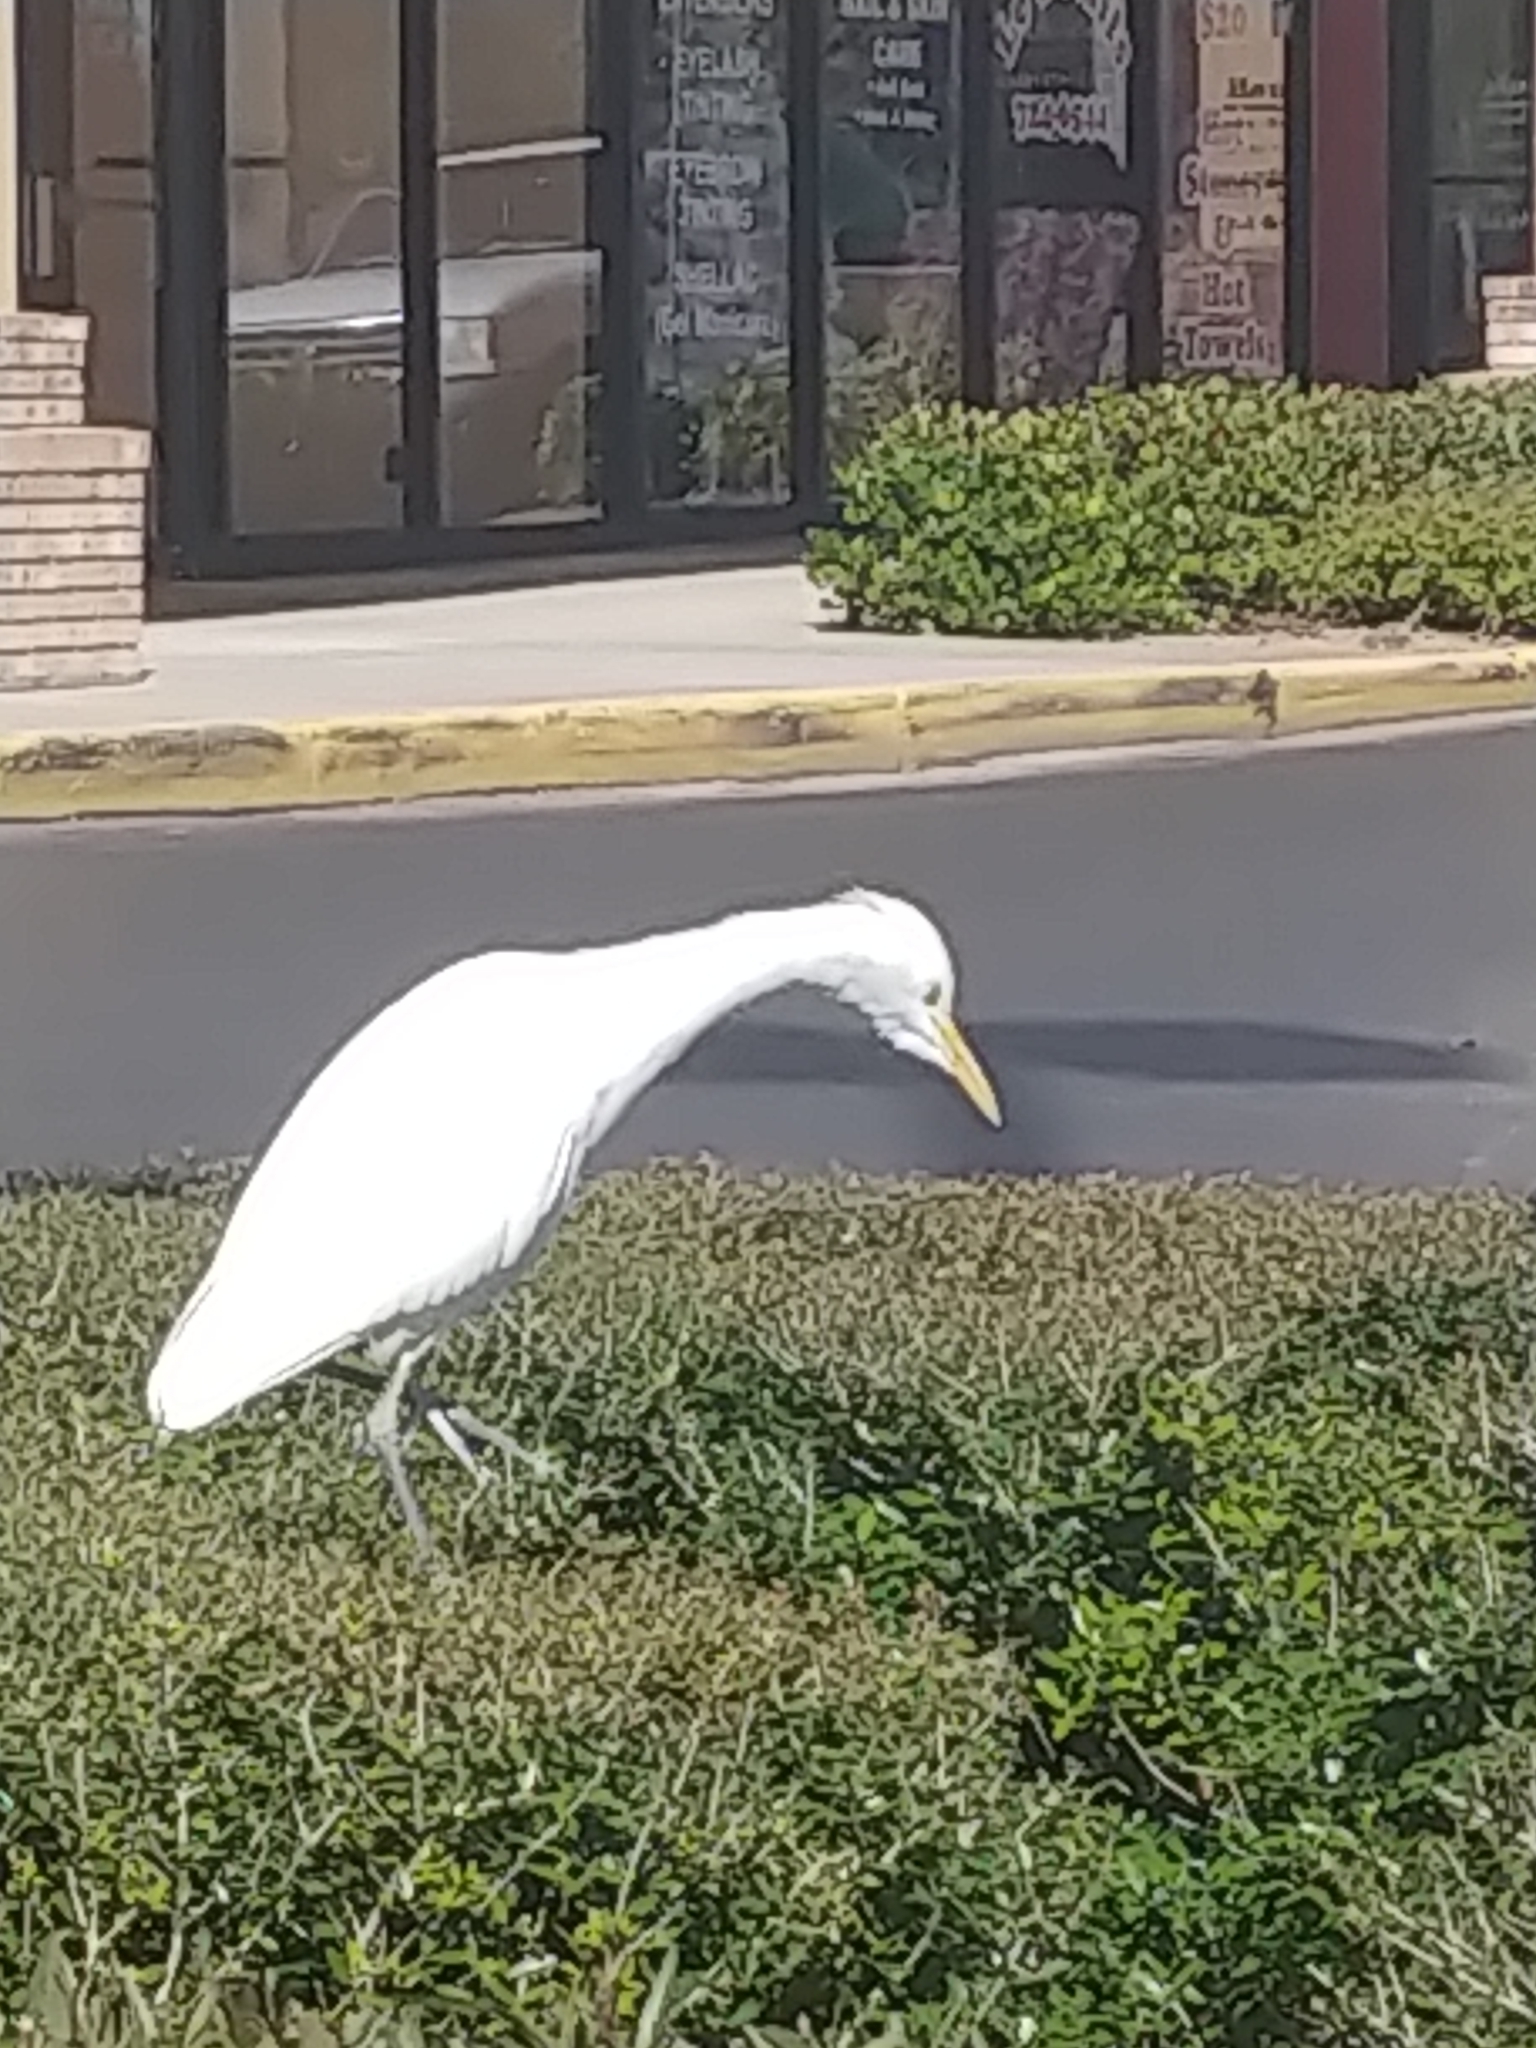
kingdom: Animalia
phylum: Chordata
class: Aves
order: Pelecaniformes
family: Ardeidae
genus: Bubulcus
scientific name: Bubulcus ibis
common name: Cattle egret
